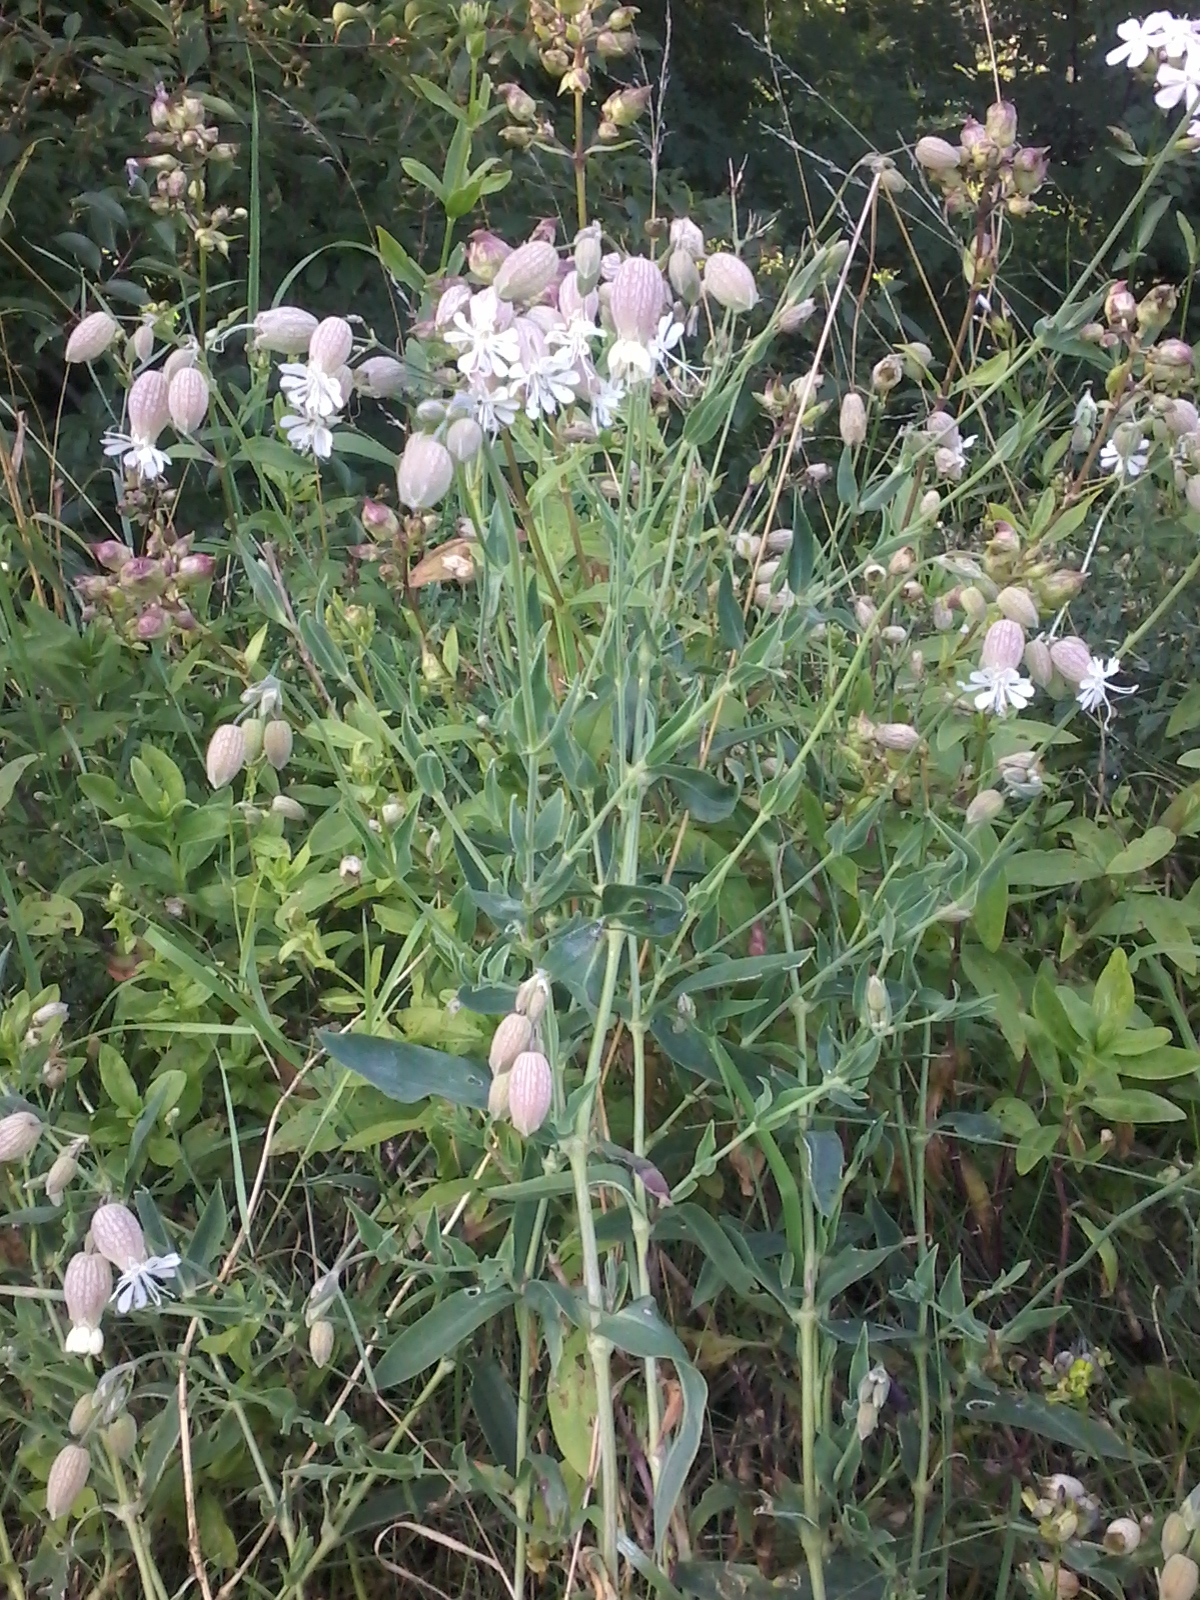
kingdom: Plantae
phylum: Tracheophyta
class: Magnoliopsida
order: Caryophyllales
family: Caryophyllaceae
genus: Silene
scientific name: Silene vulgaris
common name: Bladder campion
